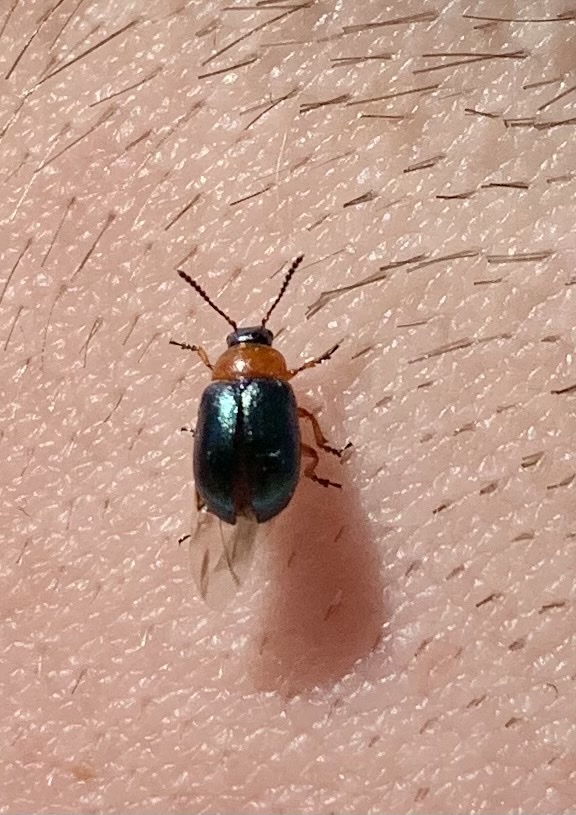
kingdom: Animalia
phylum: Arthropoda
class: Insecta
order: Coleoptera
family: Chrysomelidae
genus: Gastrophysa
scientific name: Gastrophysa polygoni
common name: Knotweed leaf beetle
